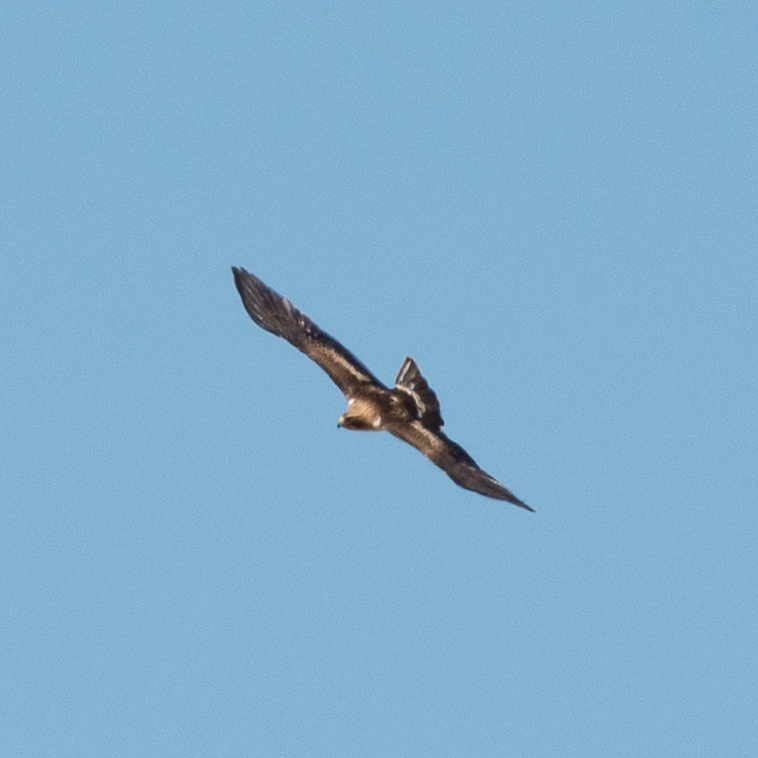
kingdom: Animalia
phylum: Chordata
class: Aves
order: Accipitriformes
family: Accipitridae
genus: Hieraaetus
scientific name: Hieraaetus pennatus
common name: Booted eagle
